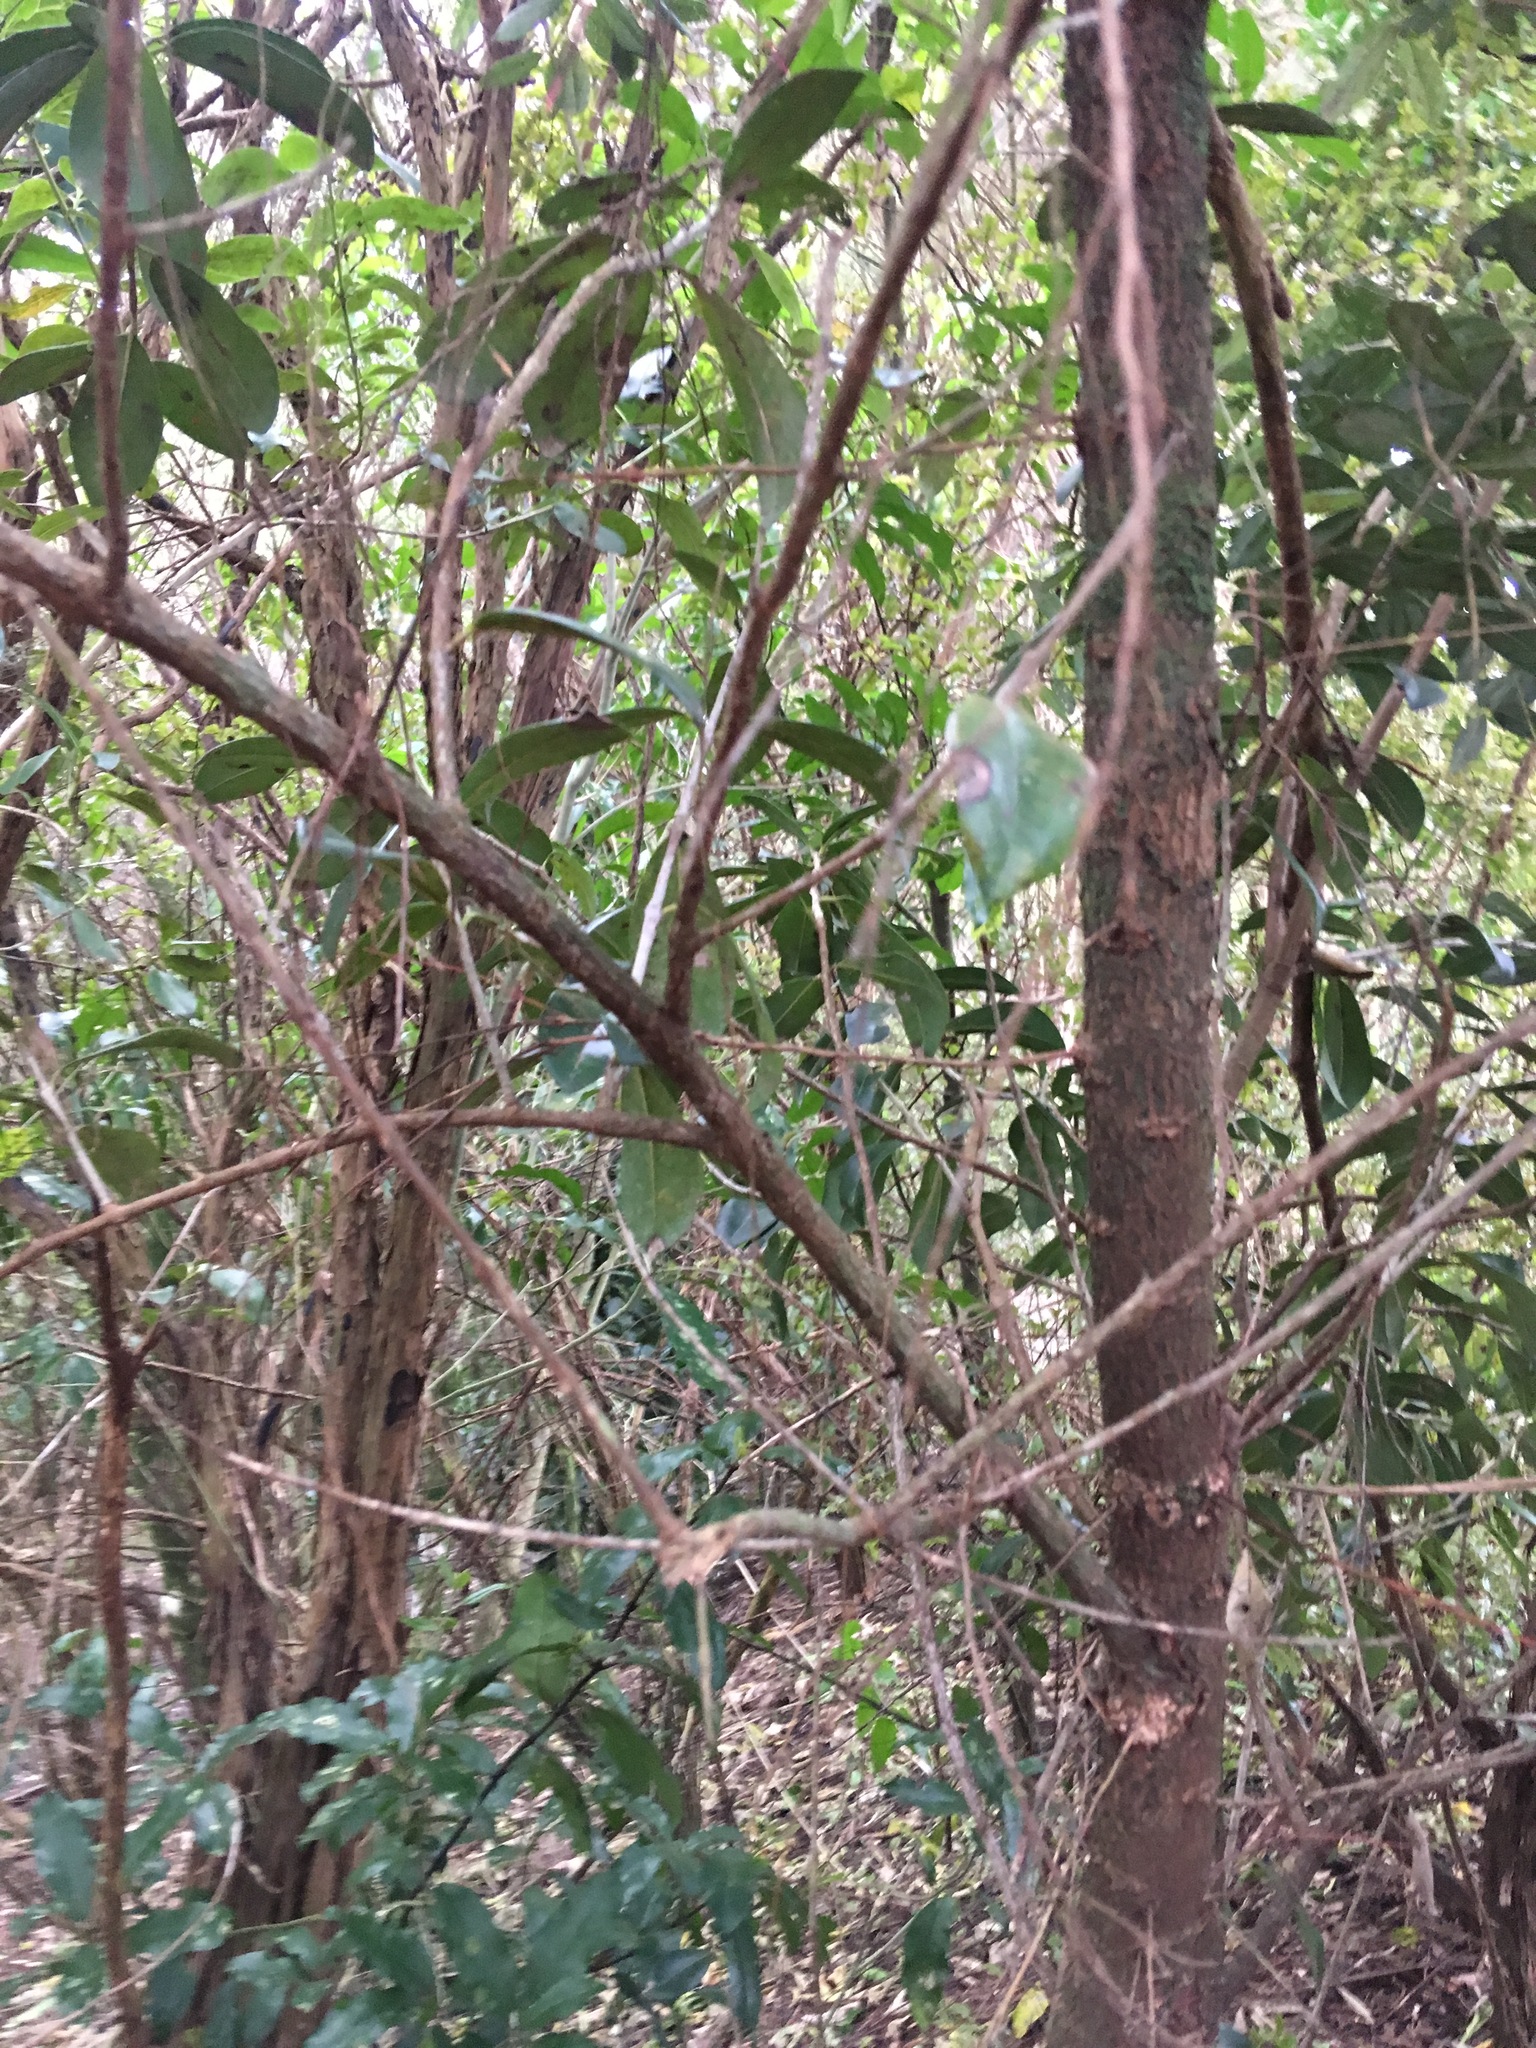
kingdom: Plantae
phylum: Tracheophyta
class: Magnoliopsida
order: Malpighiales
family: Violaceae
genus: Melicytus
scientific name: Melicytus ramiflorus
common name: Mahoe
